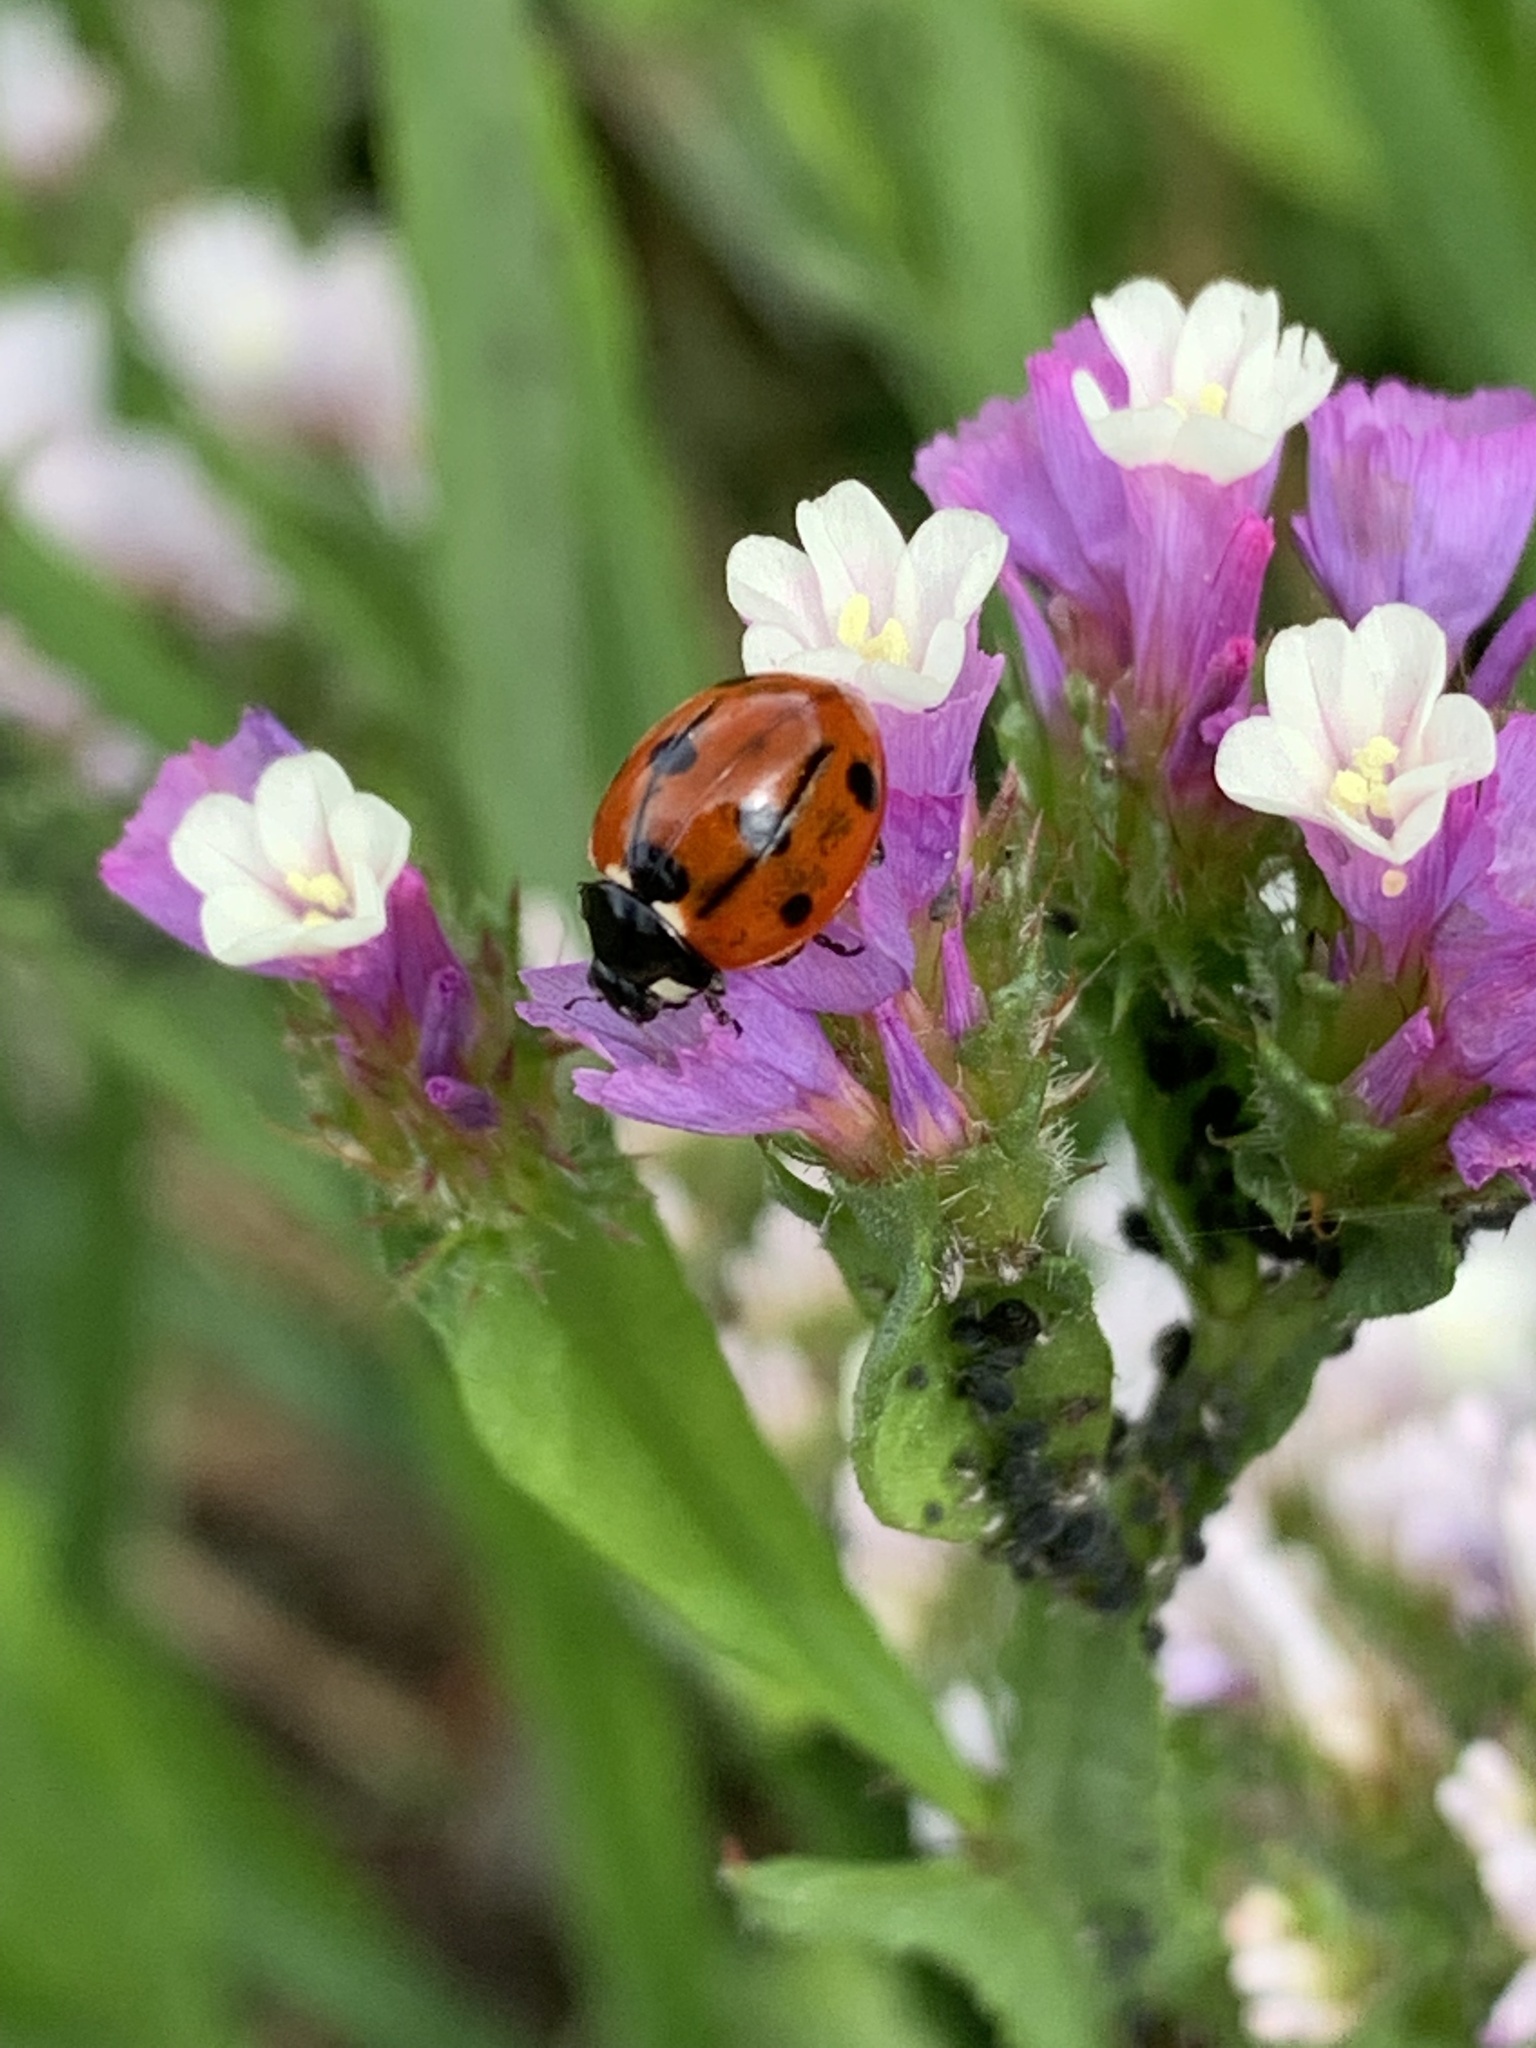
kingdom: Animalia
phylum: Arthropoda
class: Insecta
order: Coleoptera
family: Coccinellidae
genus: Coccinella
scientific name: Coccinella septempunctata
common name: Sevenspotted lady beetle
